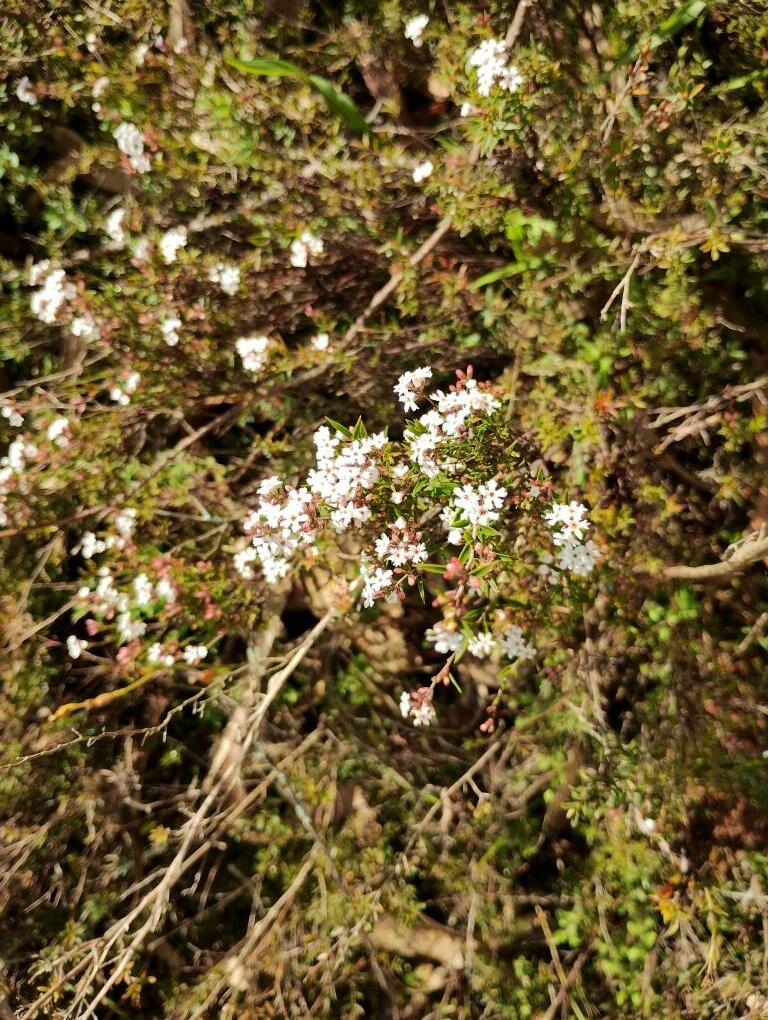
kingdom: Plantae
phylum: Tracheophyta
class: Magnoliopsida
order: Ericales
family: Ericaceae
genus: Leucopogon
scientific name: Leucopogon virgatus
